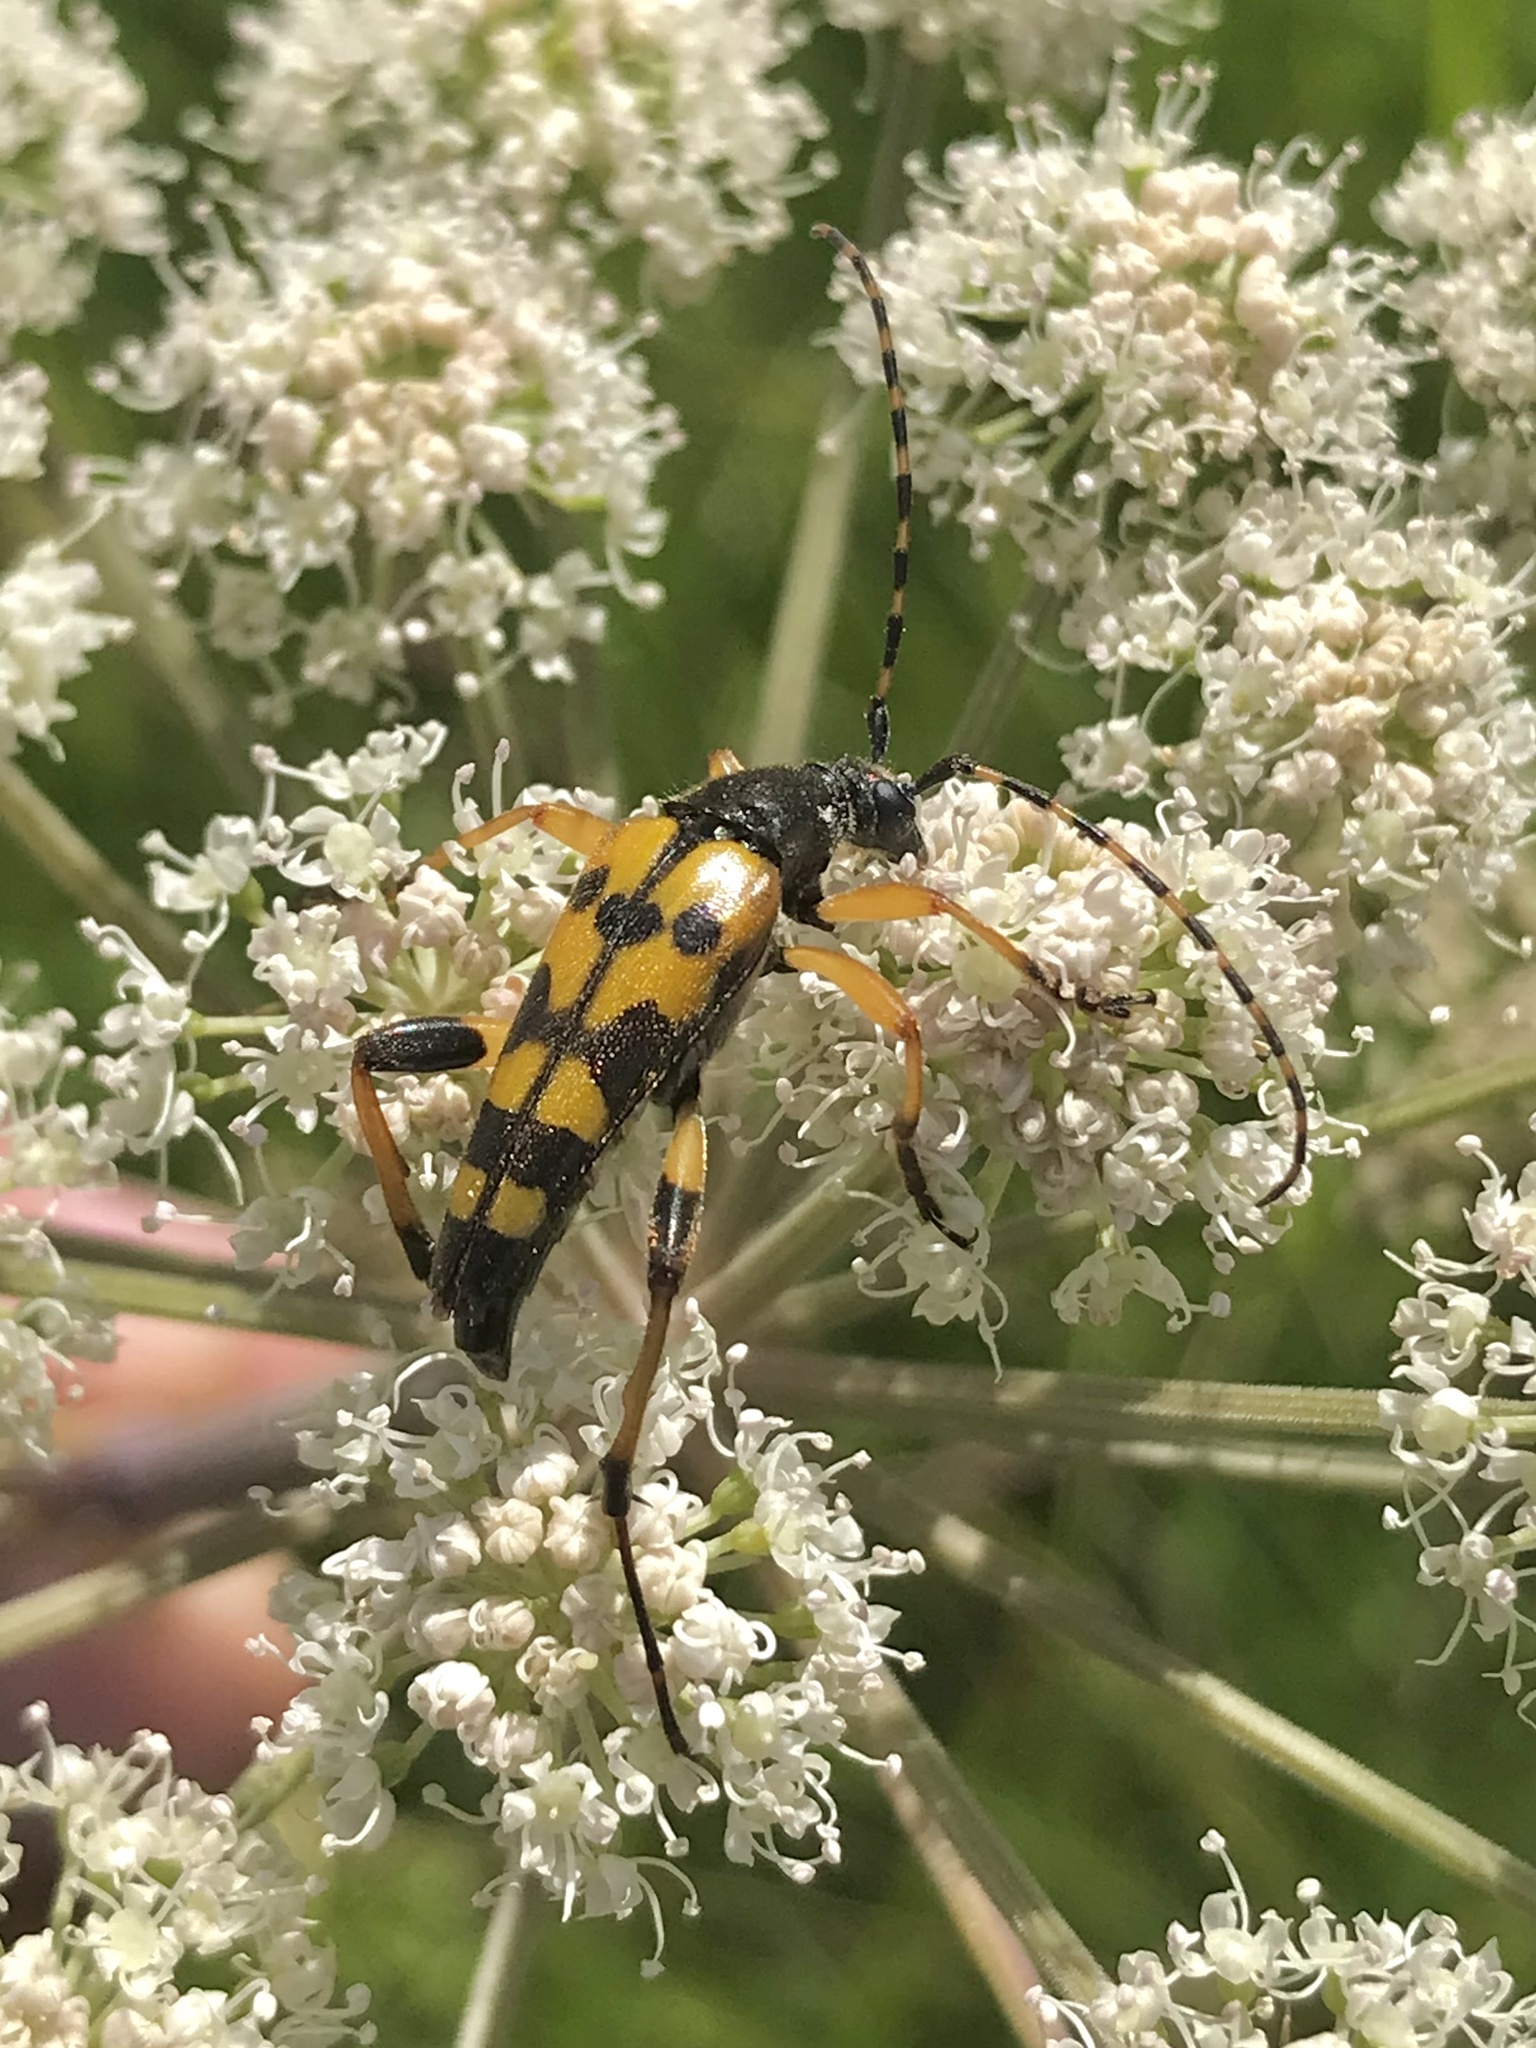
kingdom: Animalia
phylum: Arthropoda
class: Insecta
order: Coleoptera
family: Cerambycidae
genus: Rutpela
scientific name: Rutpela maculata
